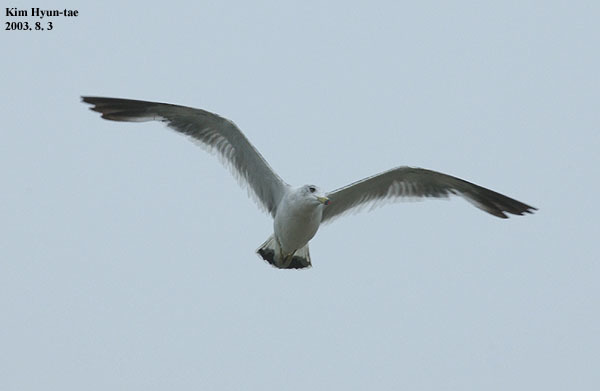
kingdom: Animalia
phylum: Chordata
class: Aves
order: Charadriiformes
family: Laridae
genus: Larus
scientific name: Larus crassirostris
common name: Black-tailed gull
